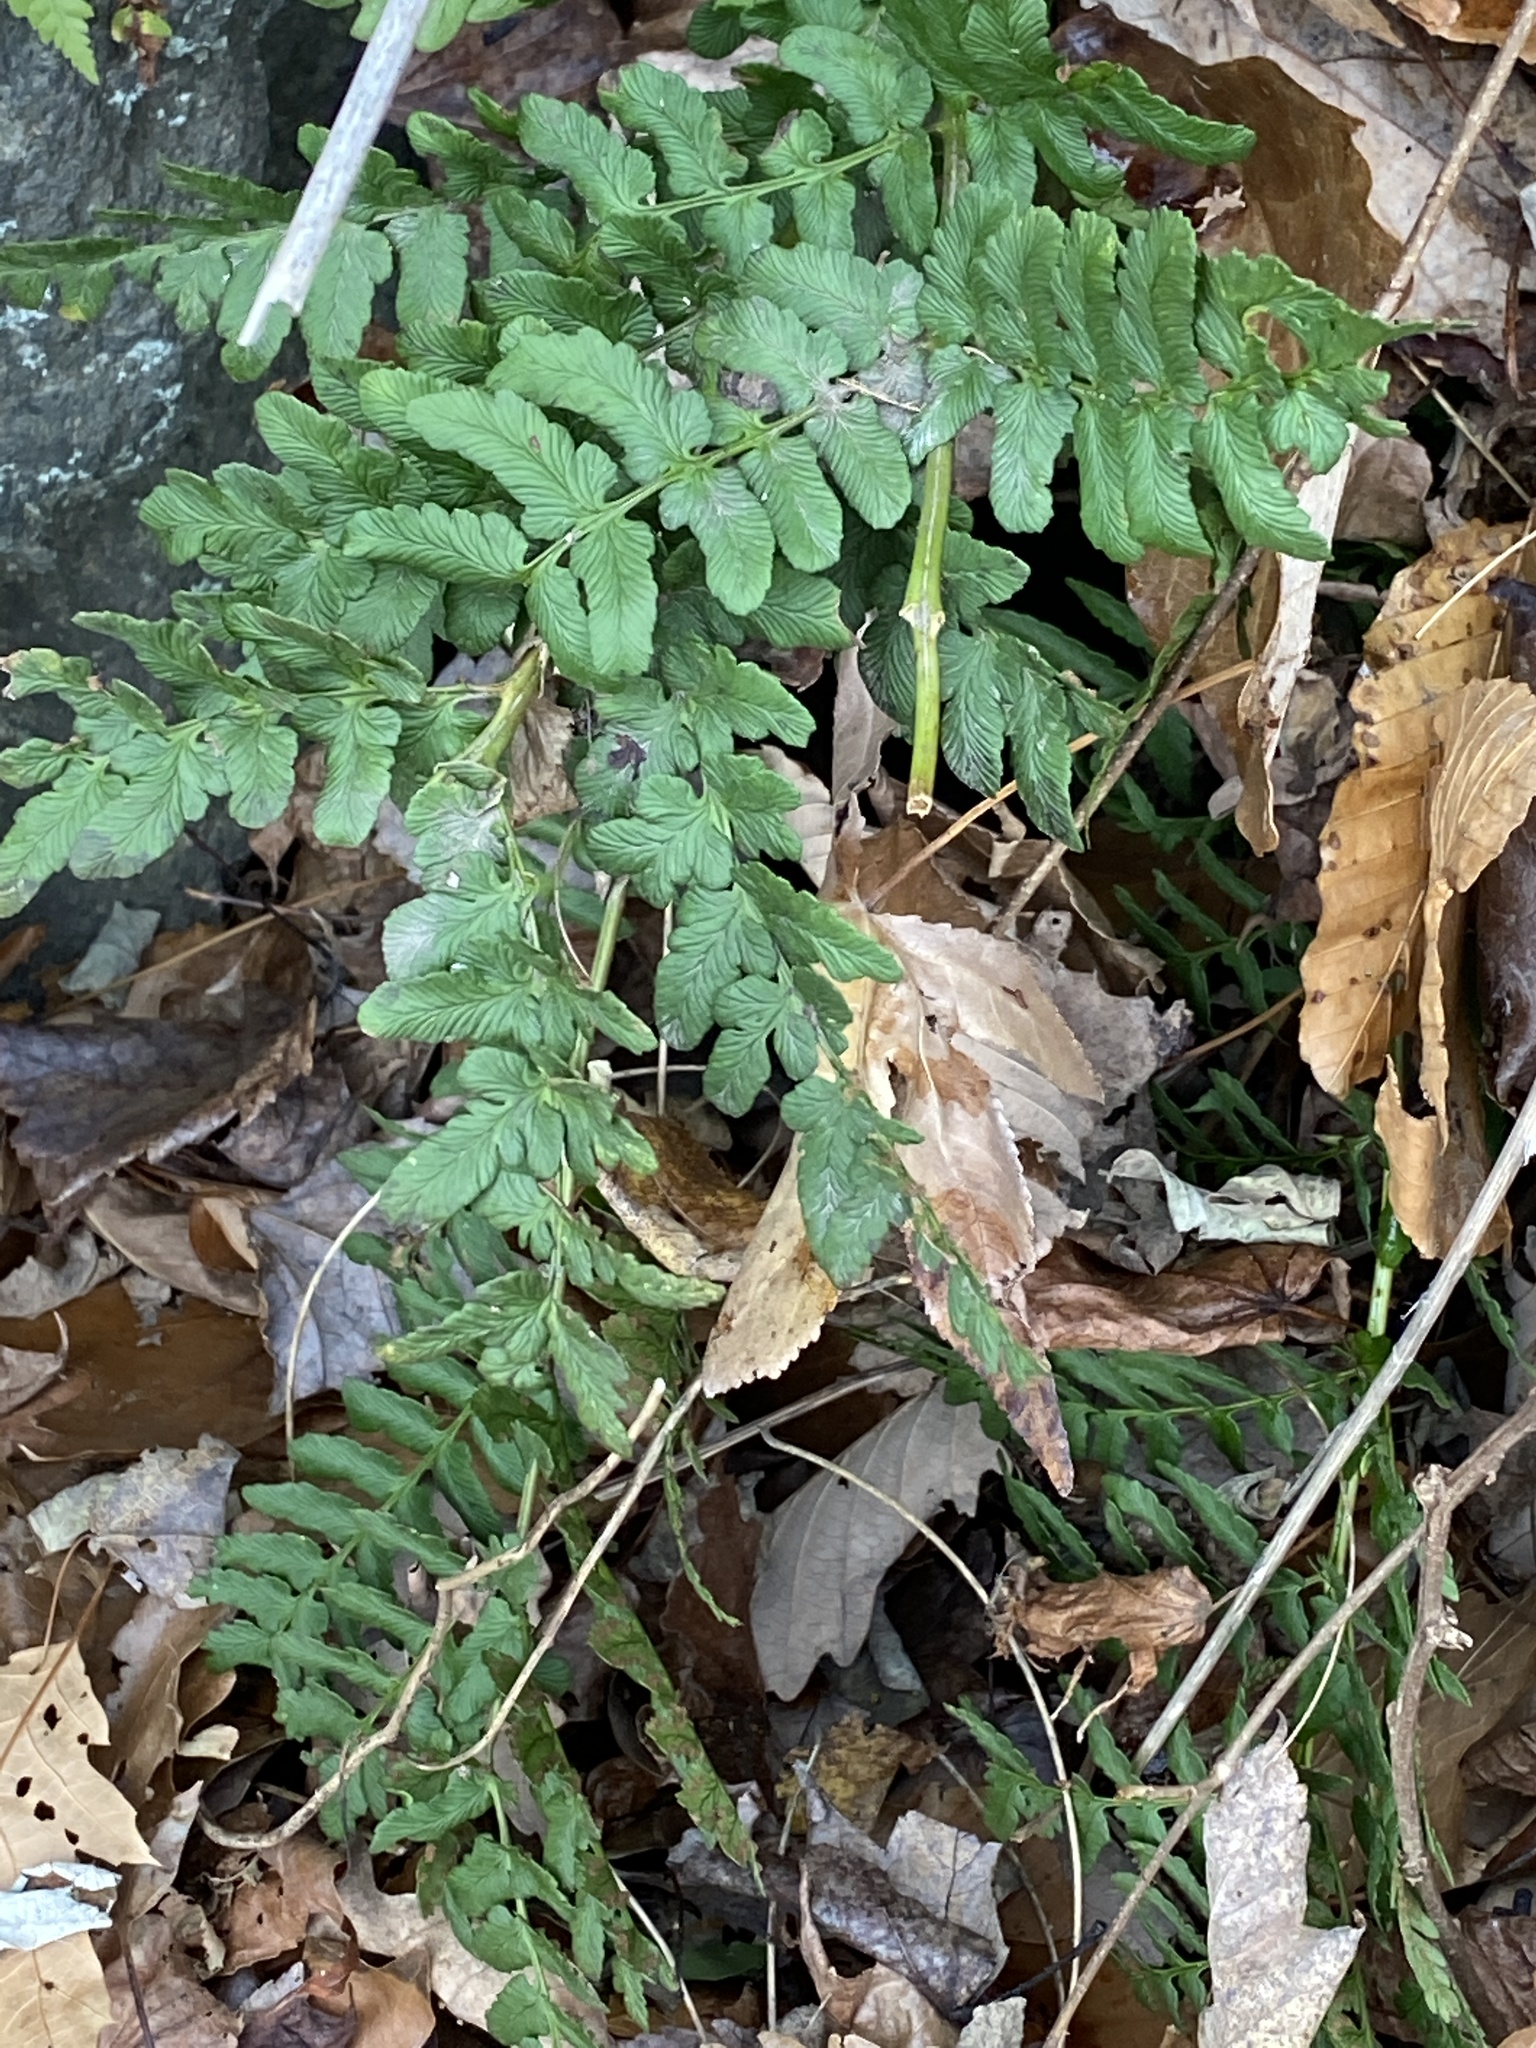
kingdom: Plantae
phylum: Tracheophyta
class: Polypodiopsida
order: Polypodiales
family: Dryopteridaceae
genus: Dryopteris
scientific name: Dryopteris marginalis
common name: Marginal wood fern
